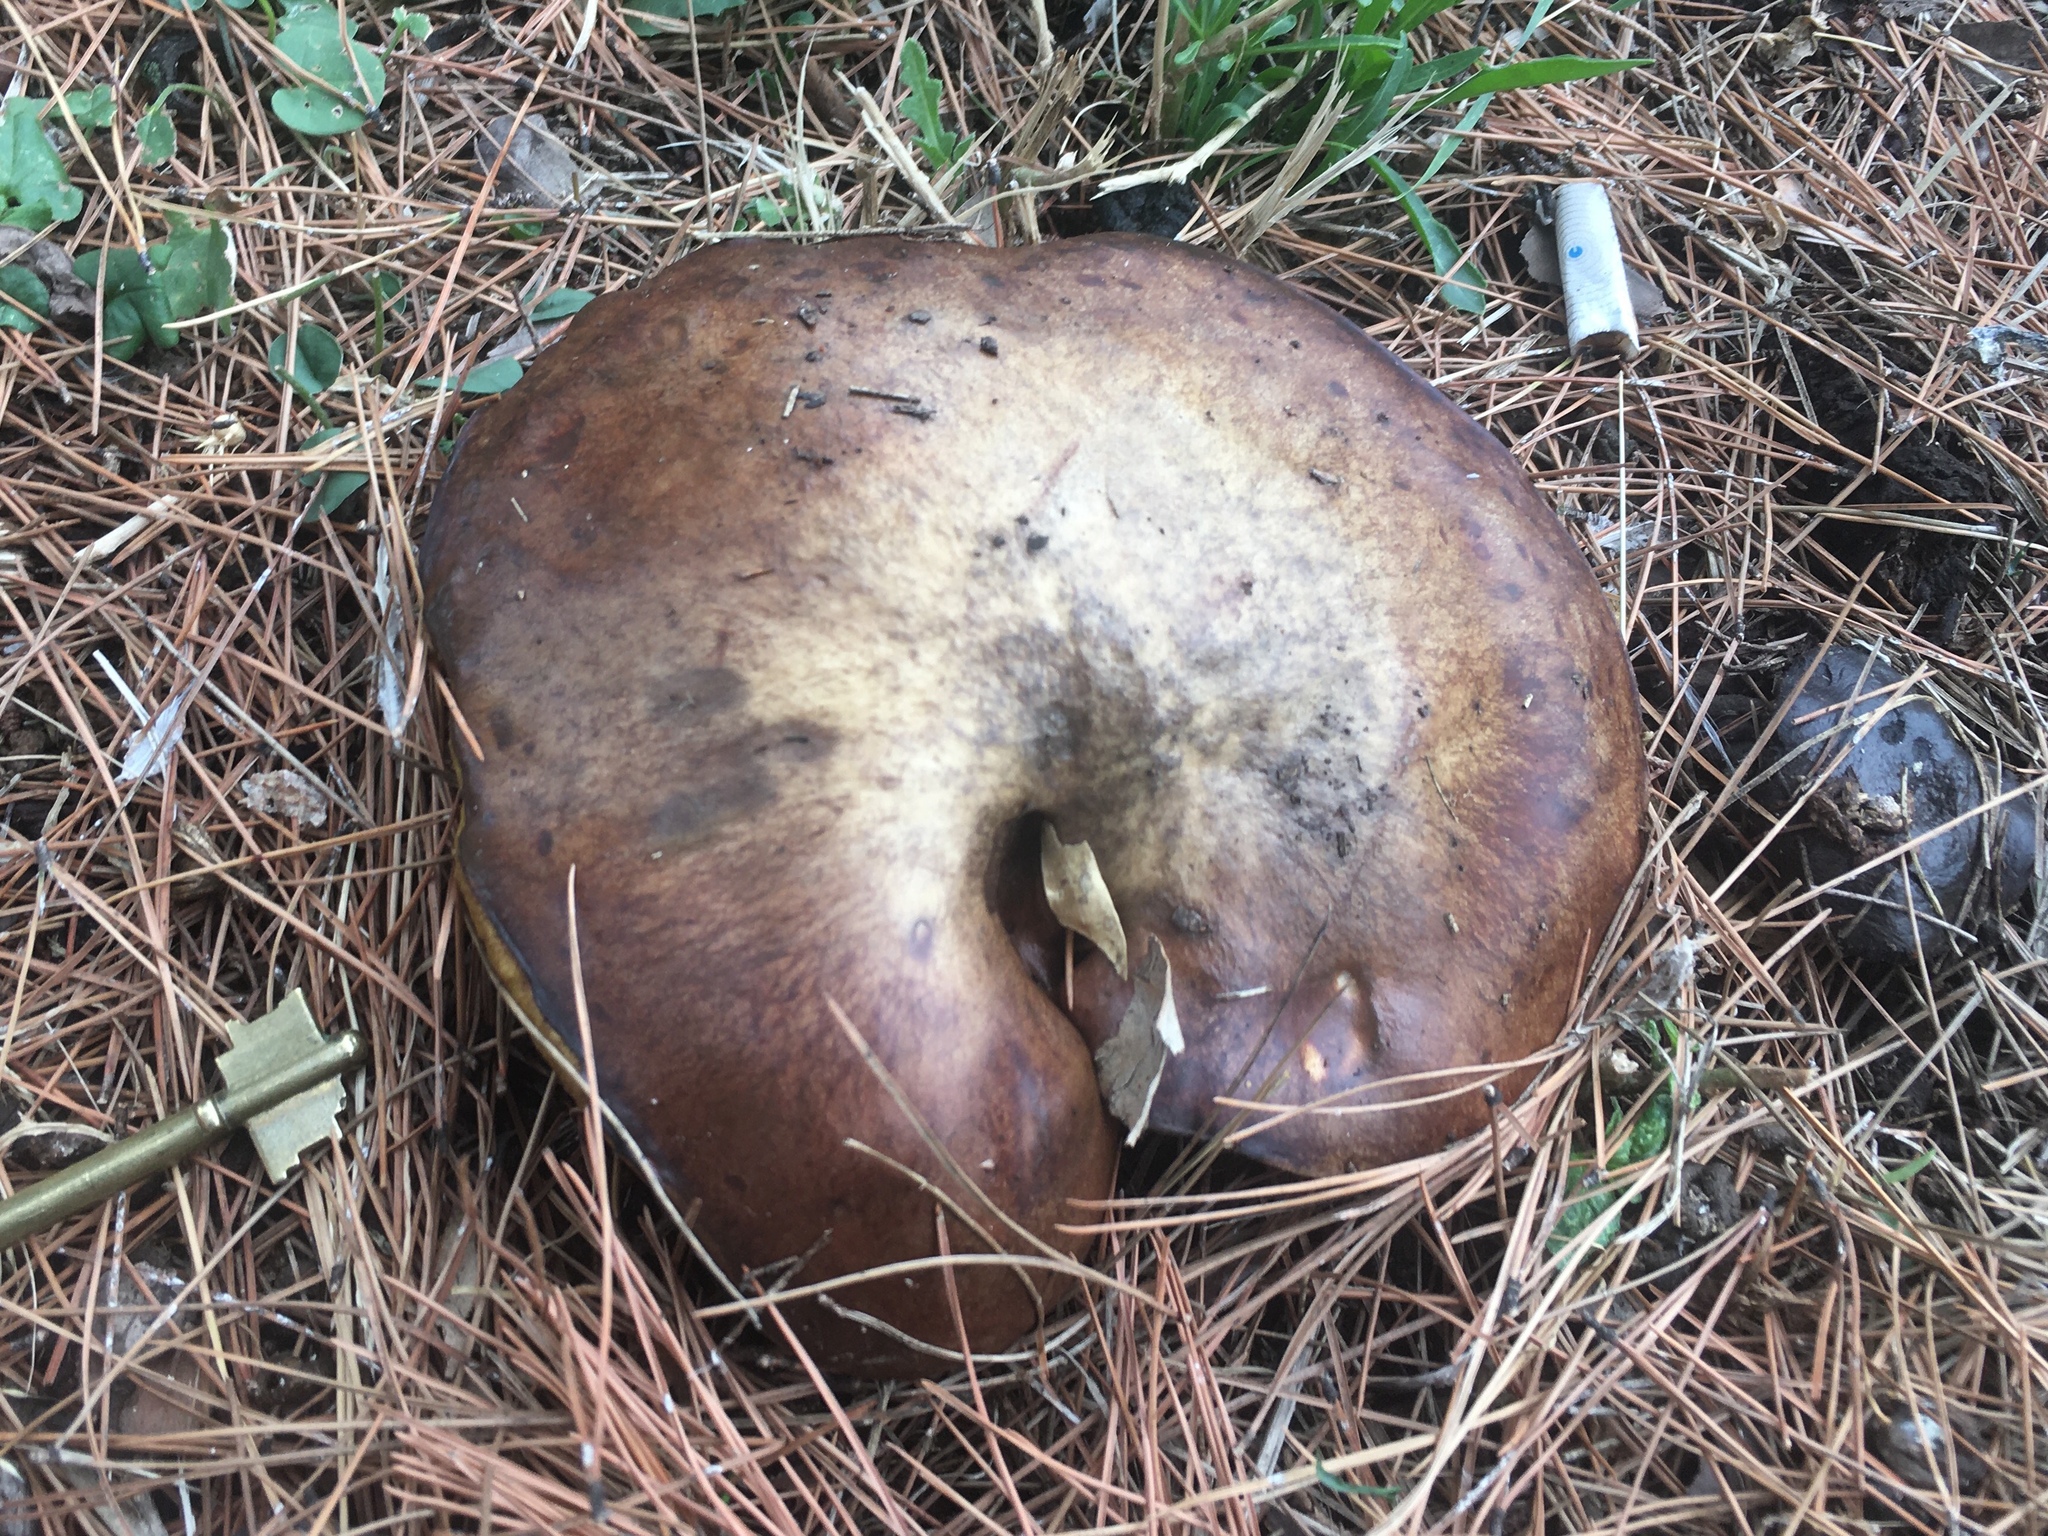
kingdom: Fungi
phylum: Basidiomycota
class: Agaricomycetes
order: Boletales
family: Suillaceae
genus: Suillus
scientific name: Suillus granulatus
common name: Weeping bolete
